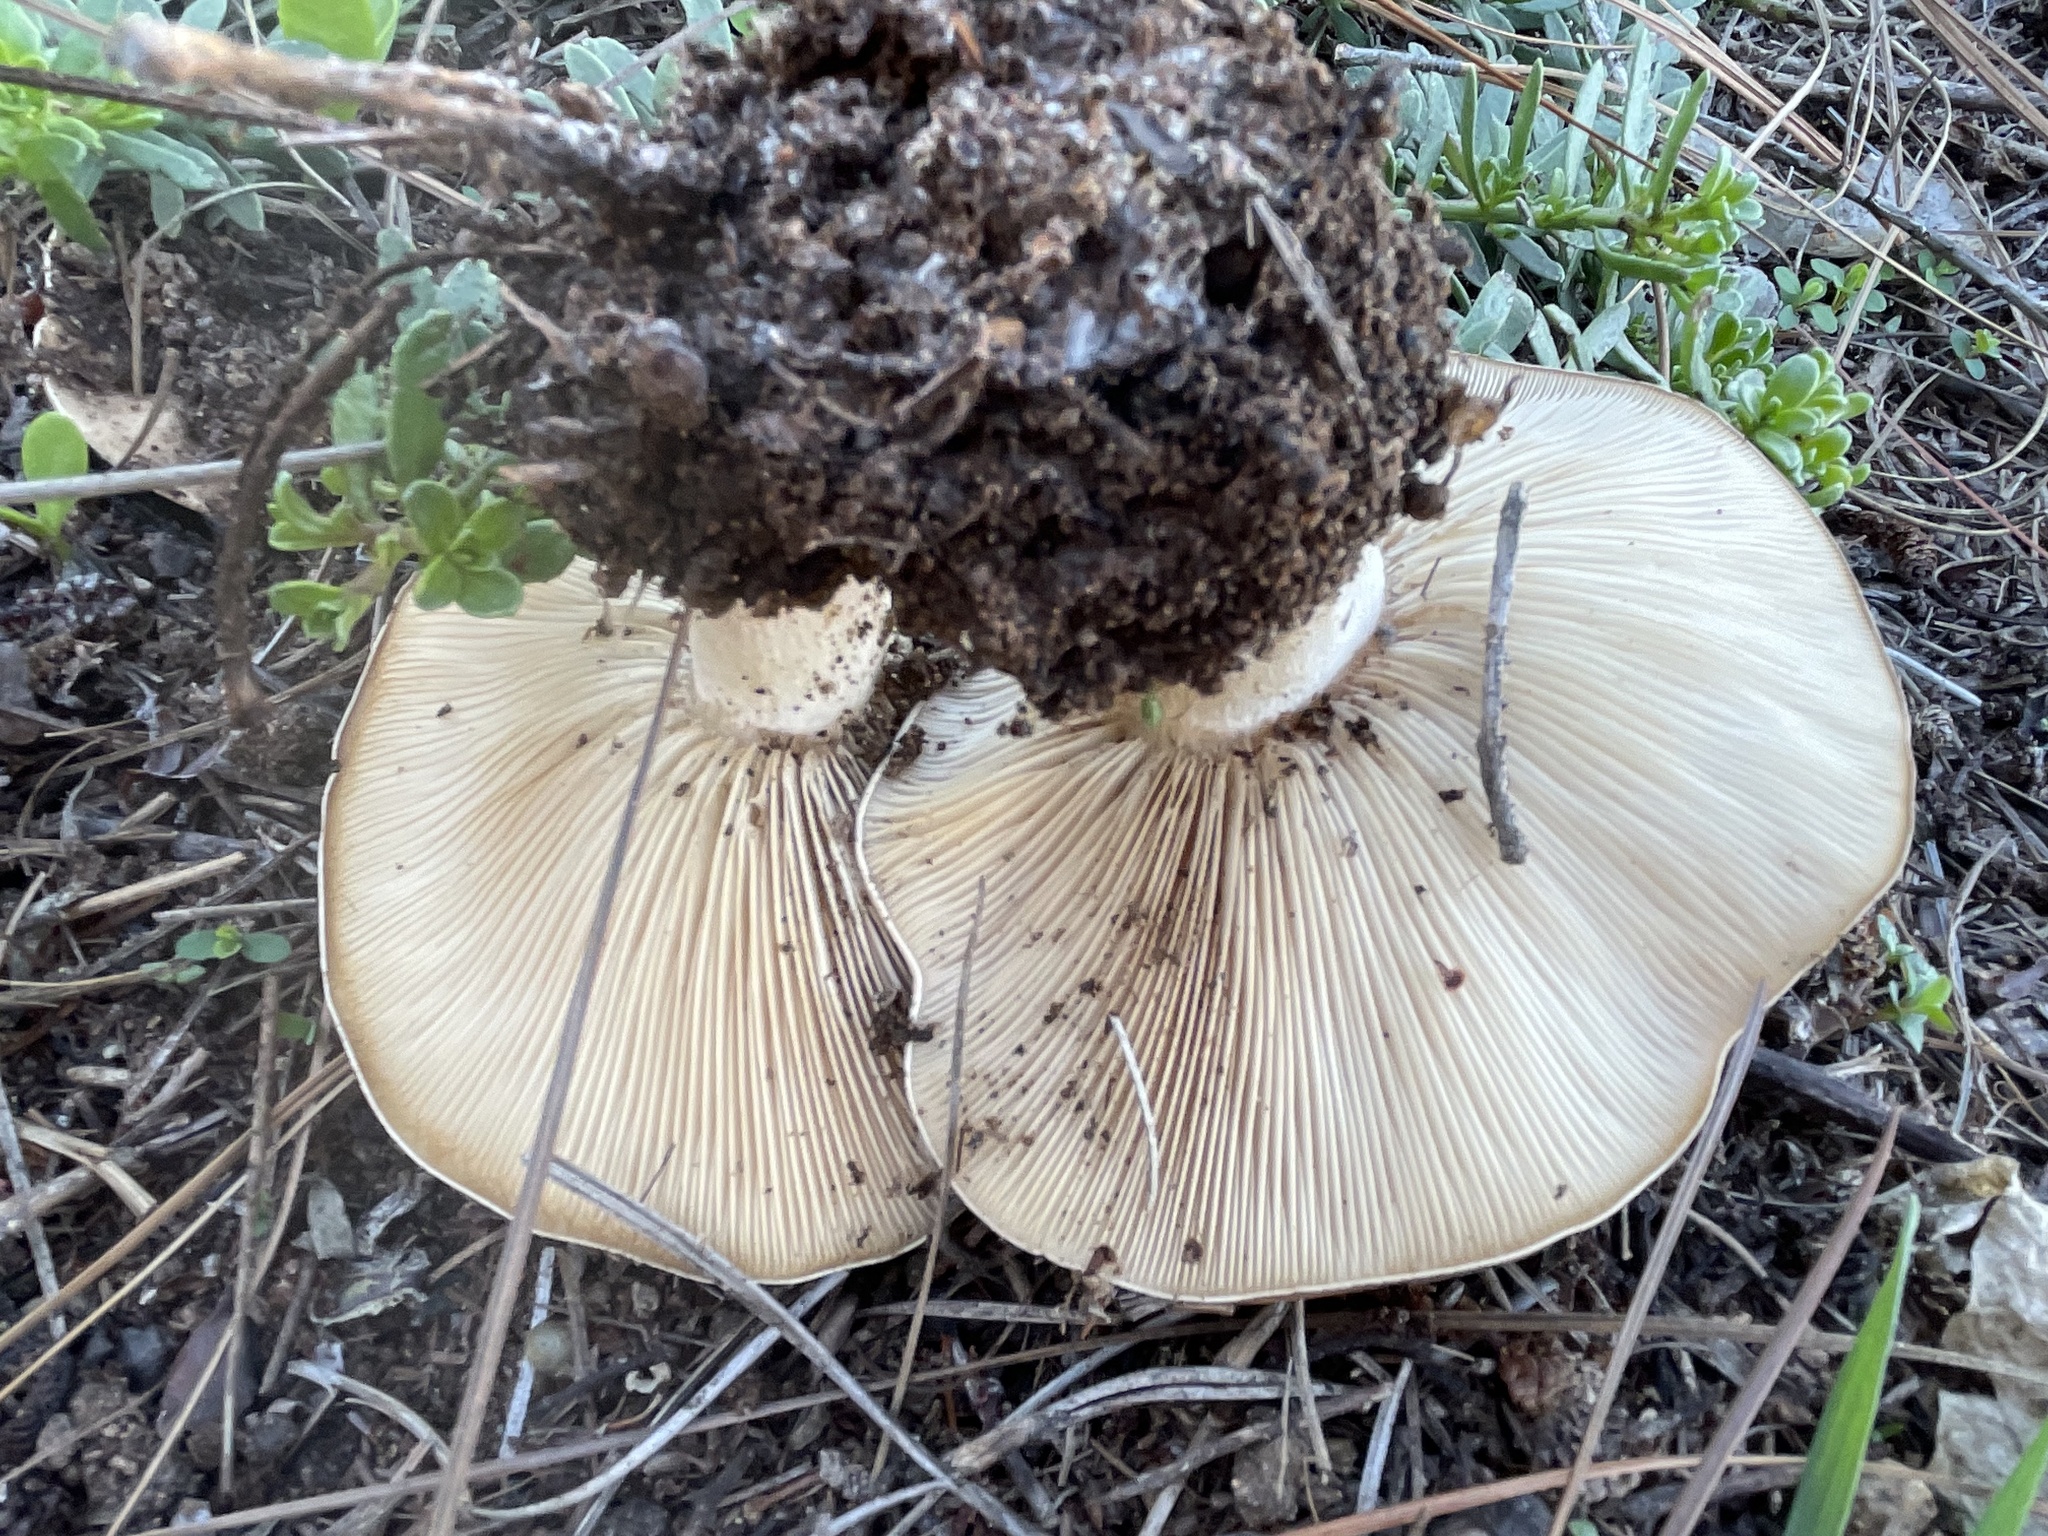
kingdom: Fungi
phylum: Basidiomycota
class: Agaricomycetes
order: Agaricales
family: Tricholomataceae
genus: Collybia
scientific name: Collybia
